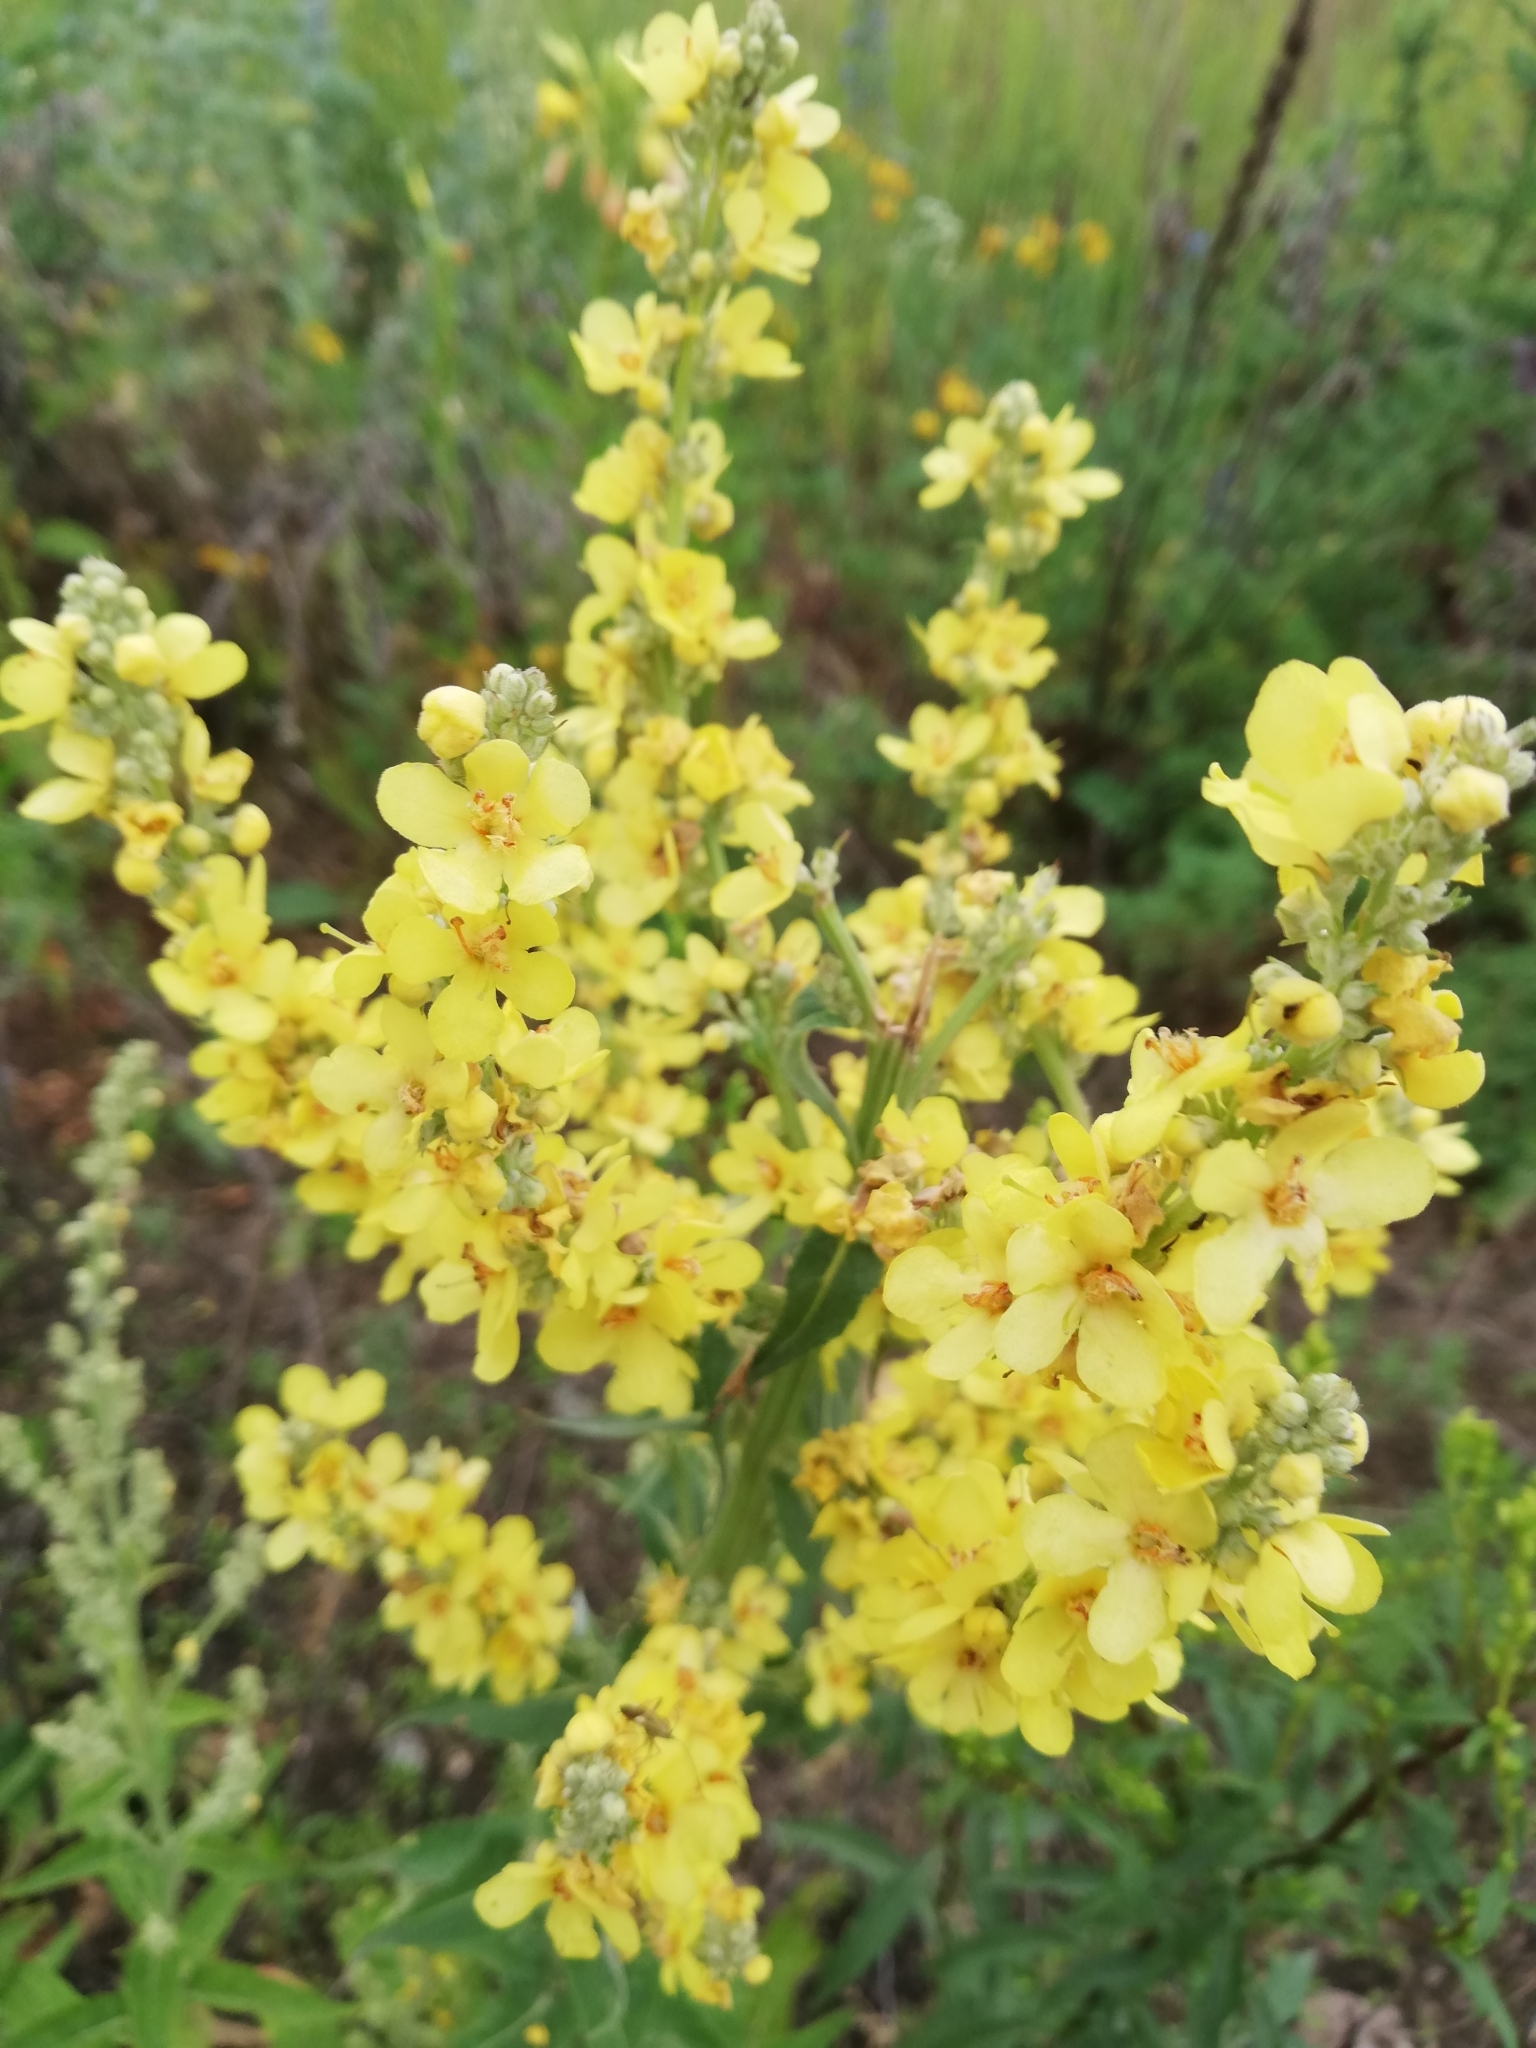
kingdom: Plantae
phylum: Tracheophyta
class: Magnoliopsida
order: Lamiales
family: Scrophulariaceae
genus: Verbascum
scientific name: Verbascum lychnitis
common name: White mullein
